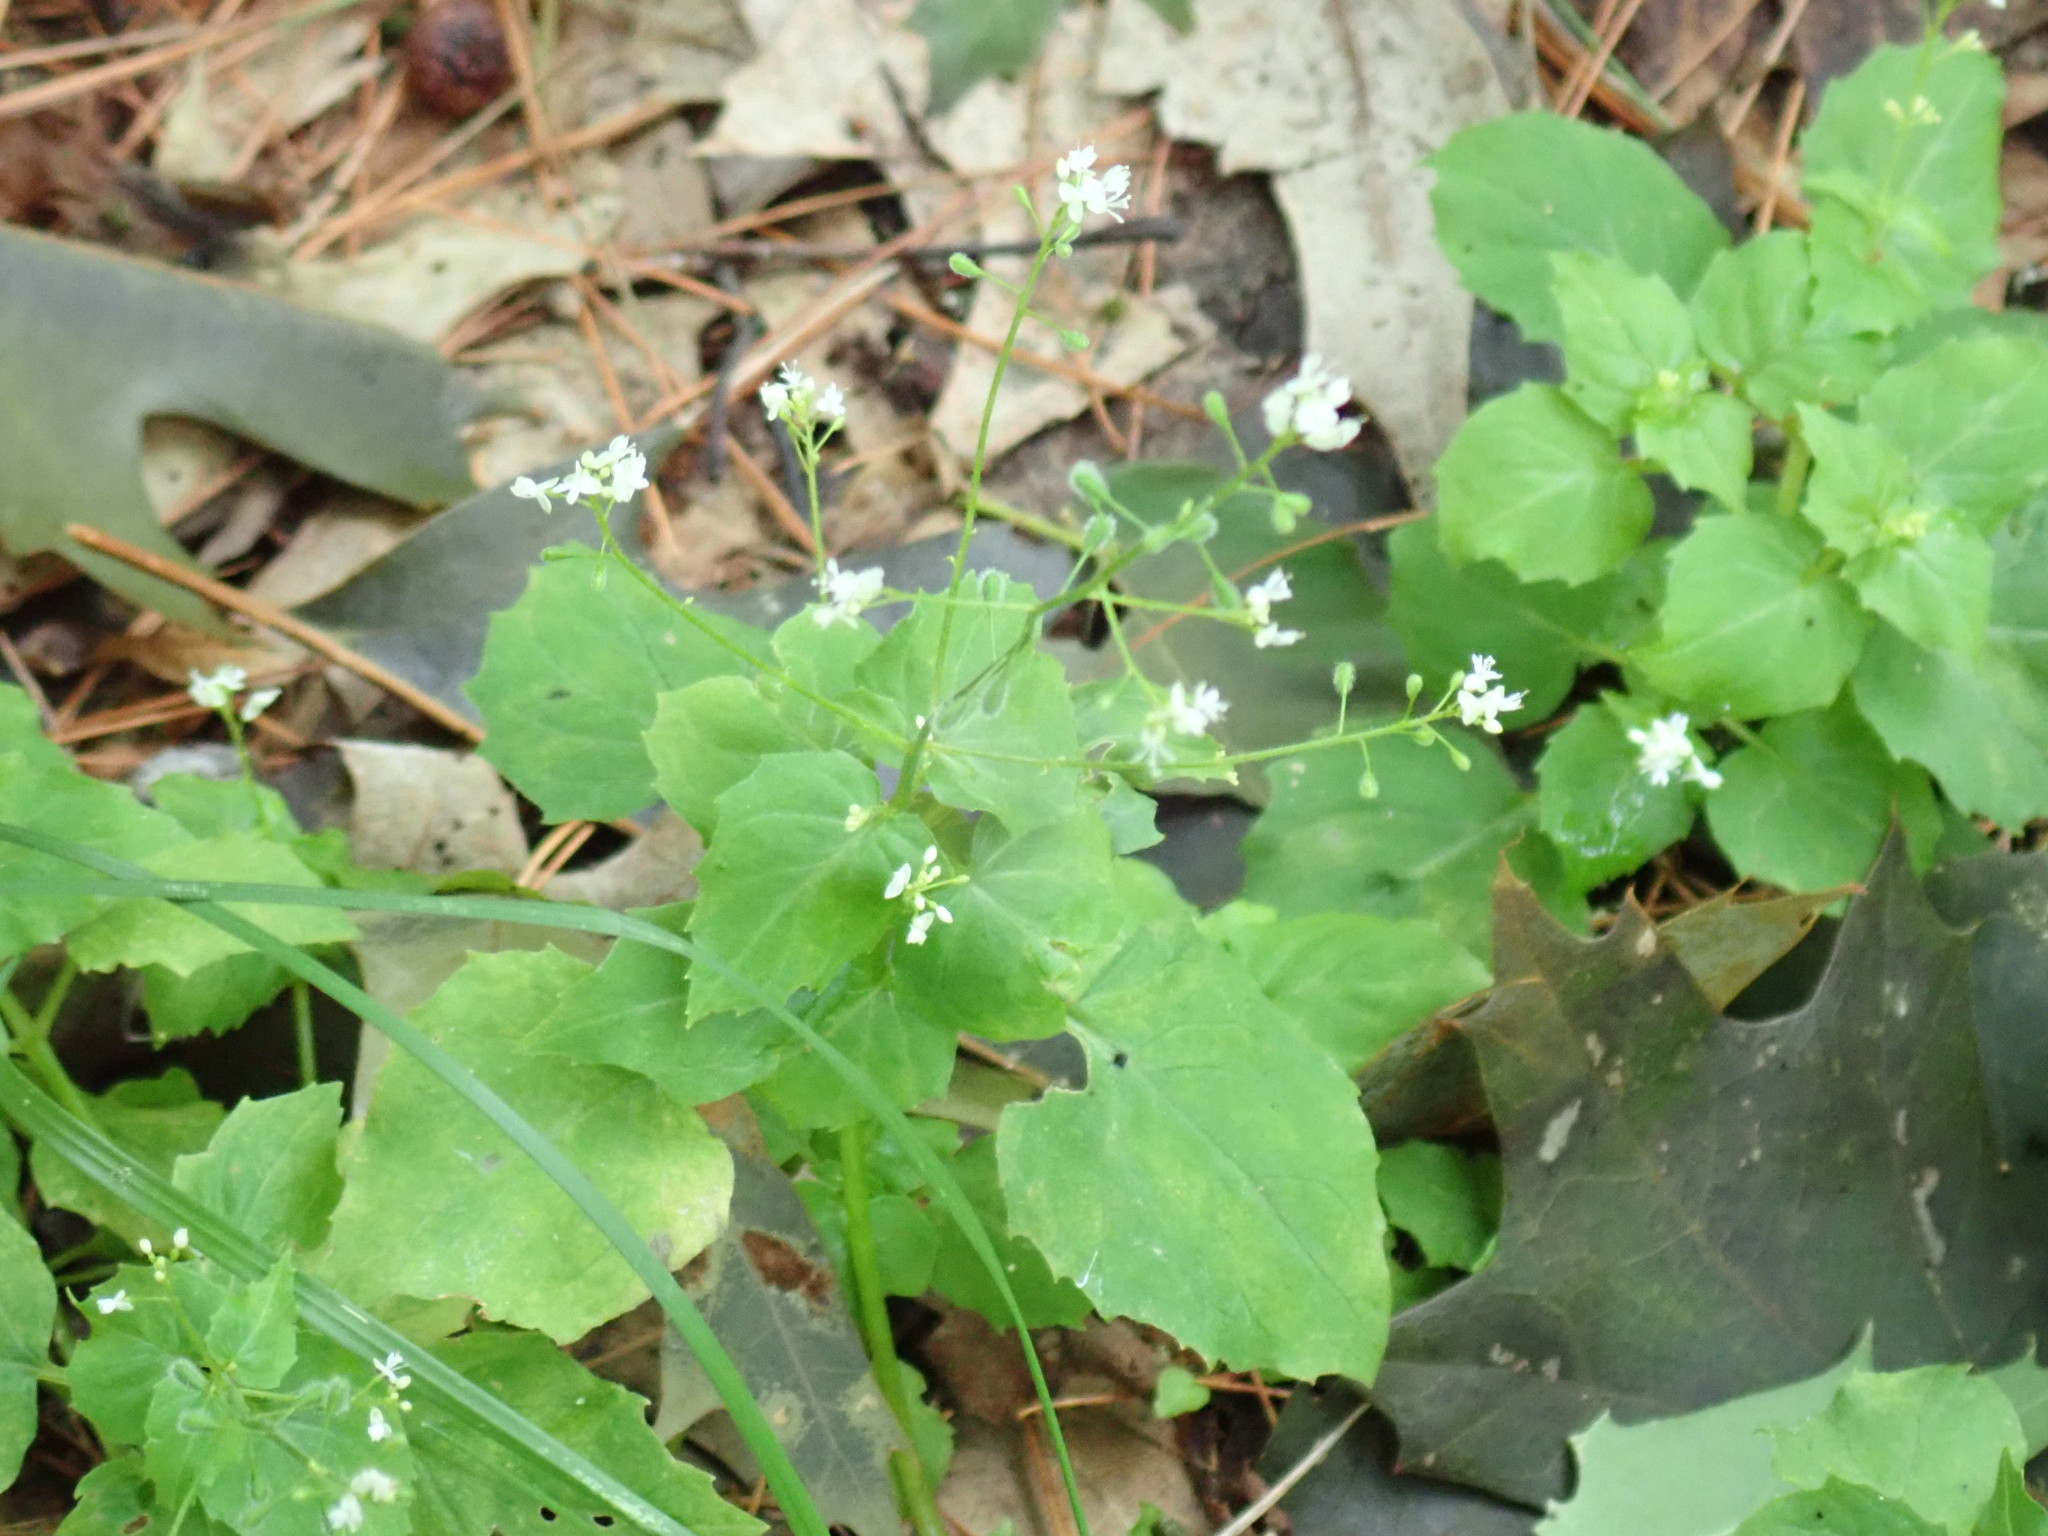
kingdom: Plantae
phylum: Tracheophyta
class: Magnoliopsida
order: Myrtales
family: Onagraceae
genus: Circaea
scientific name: Circaea alpina
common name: Alpine enchanter's-nightshade
